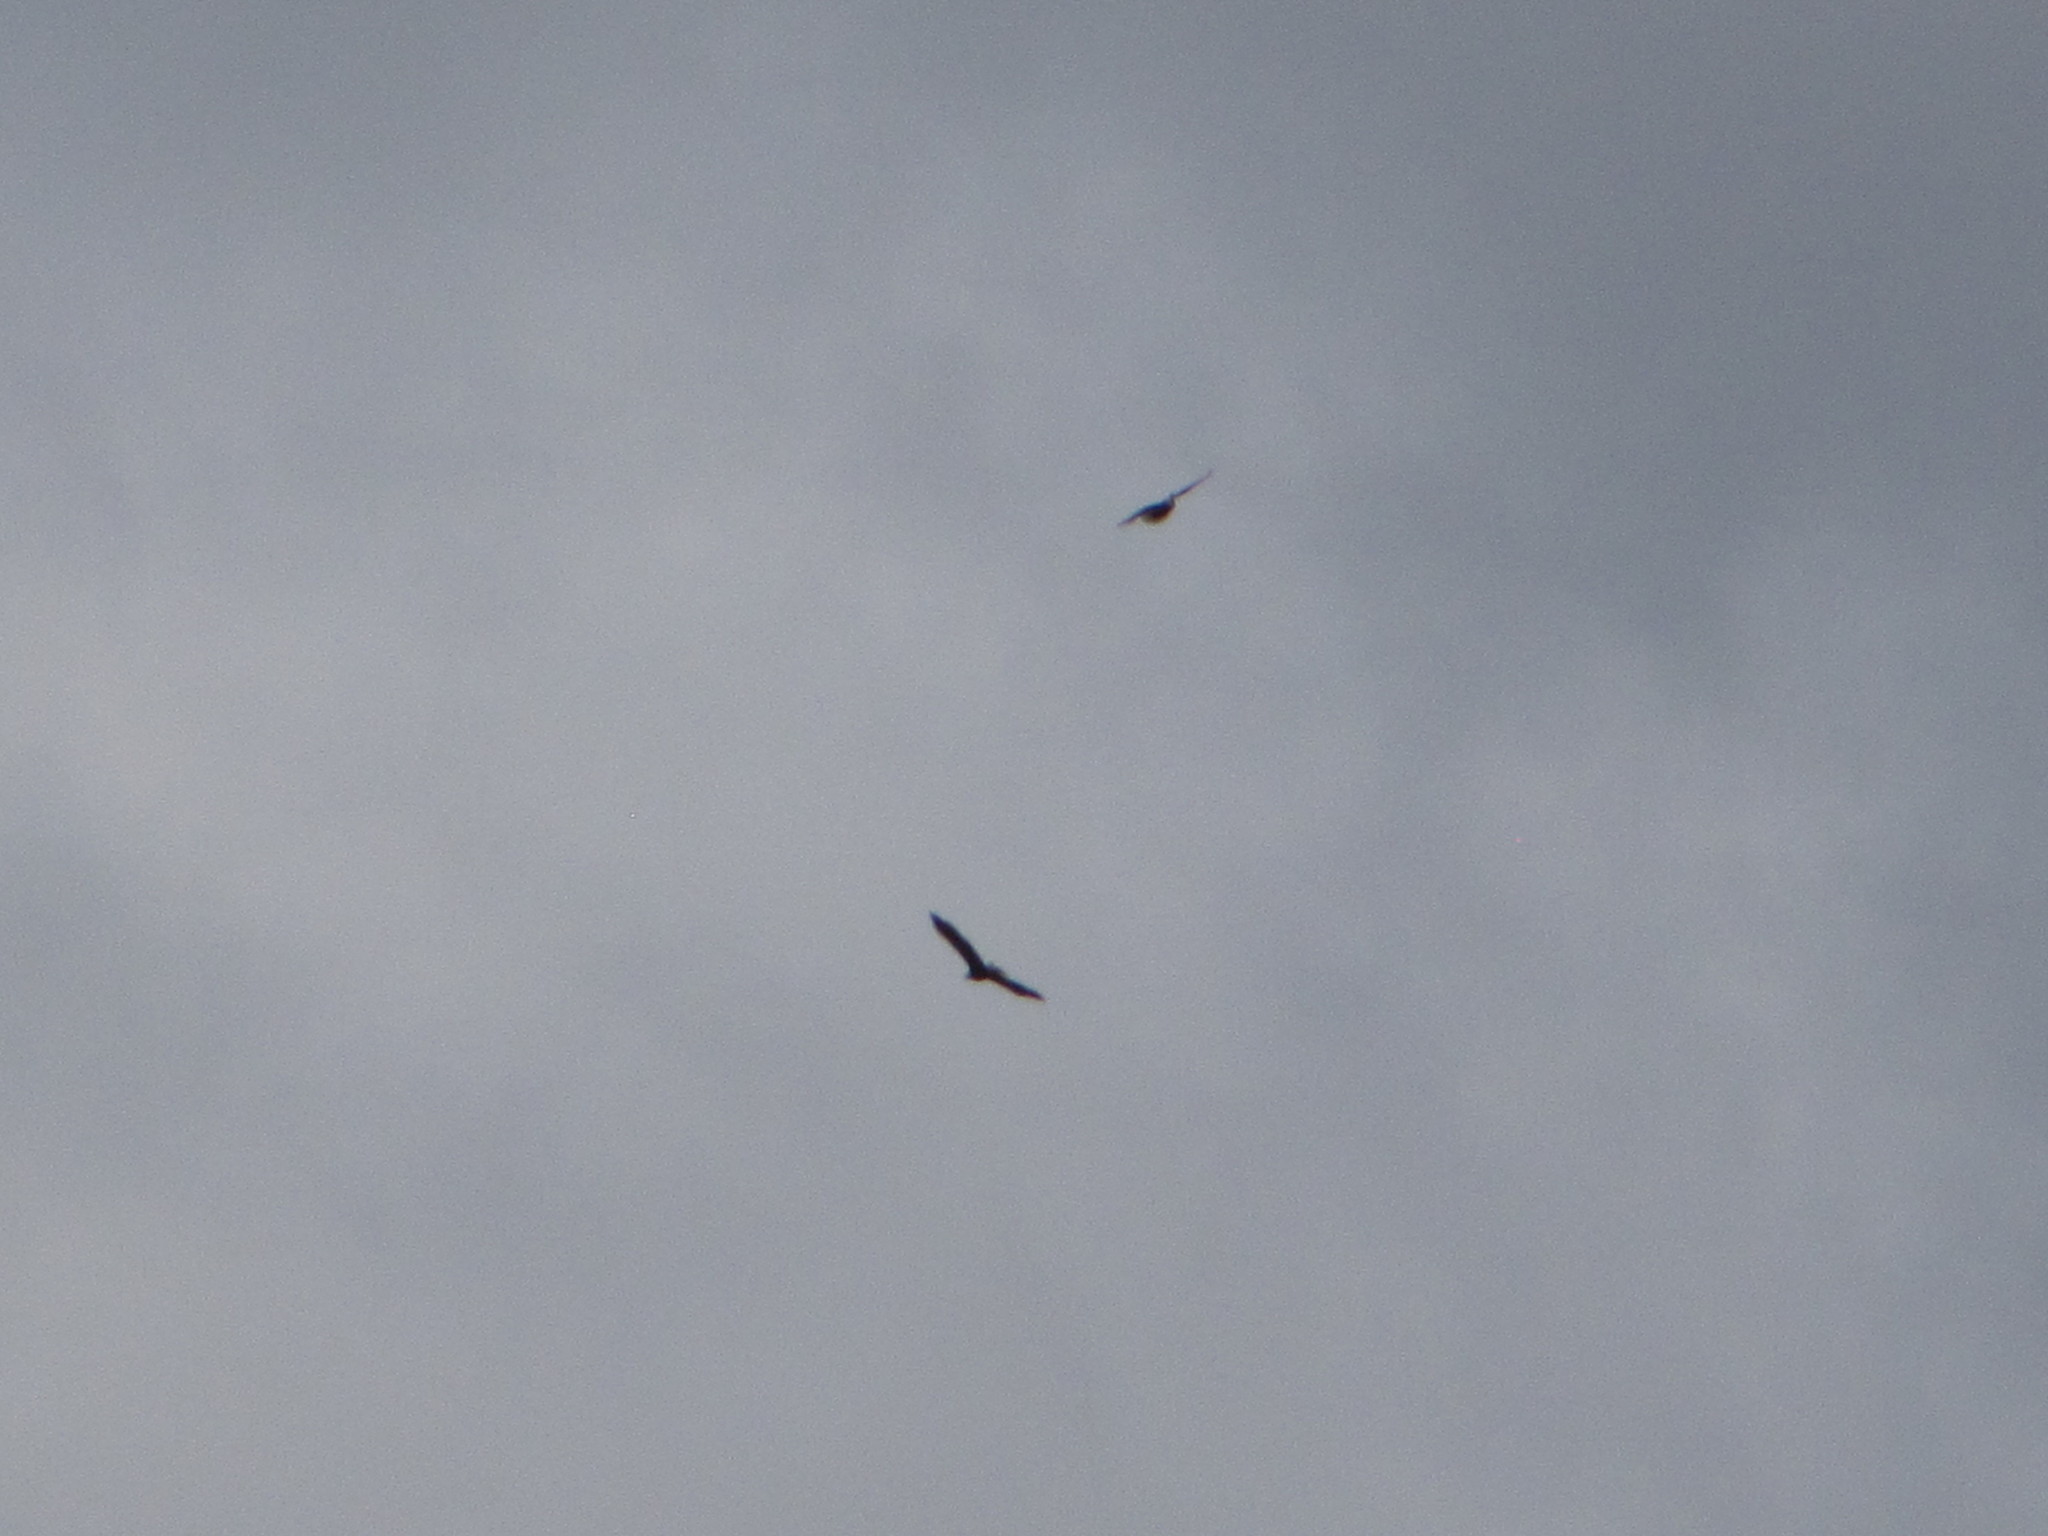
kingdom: Animalia
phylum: Chordata
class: Aves
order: Accipitriformes
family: Accipitridae
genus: Haliaeetus
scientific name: Haliaeetus leucocephalus
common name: Bald eagle
